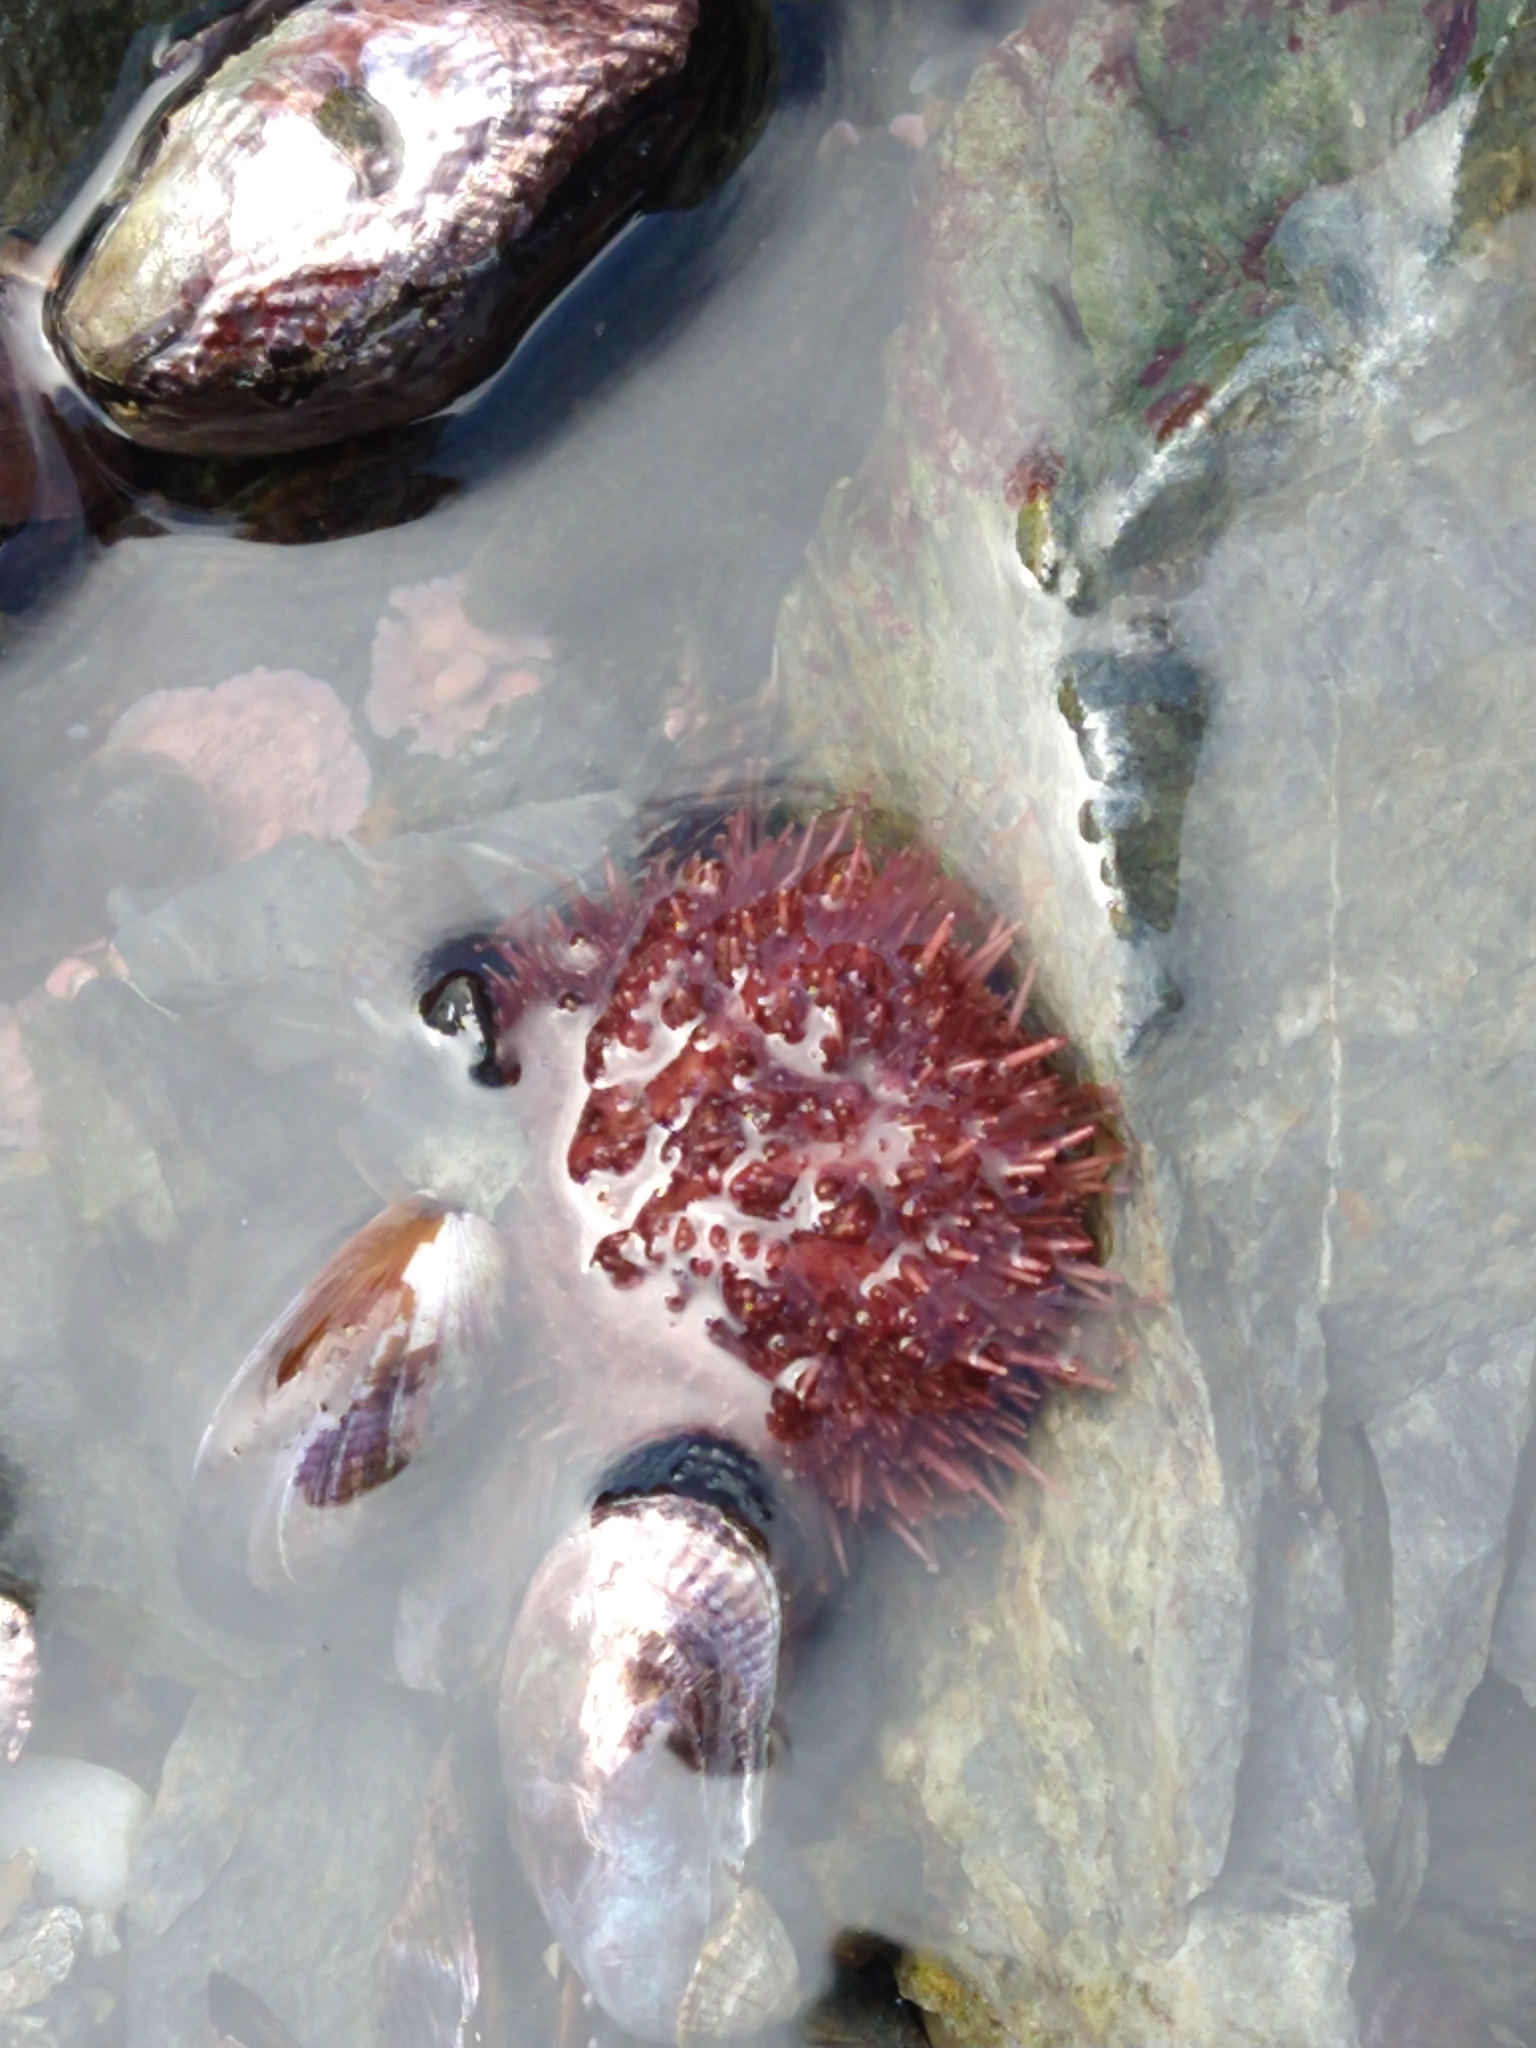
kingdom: Animalia
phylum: Echinodermata
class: Echinoidea
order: Camarodonta
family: Temnopleuridae
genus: Pseudechinus
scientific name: Pseudechinus magellanicus
